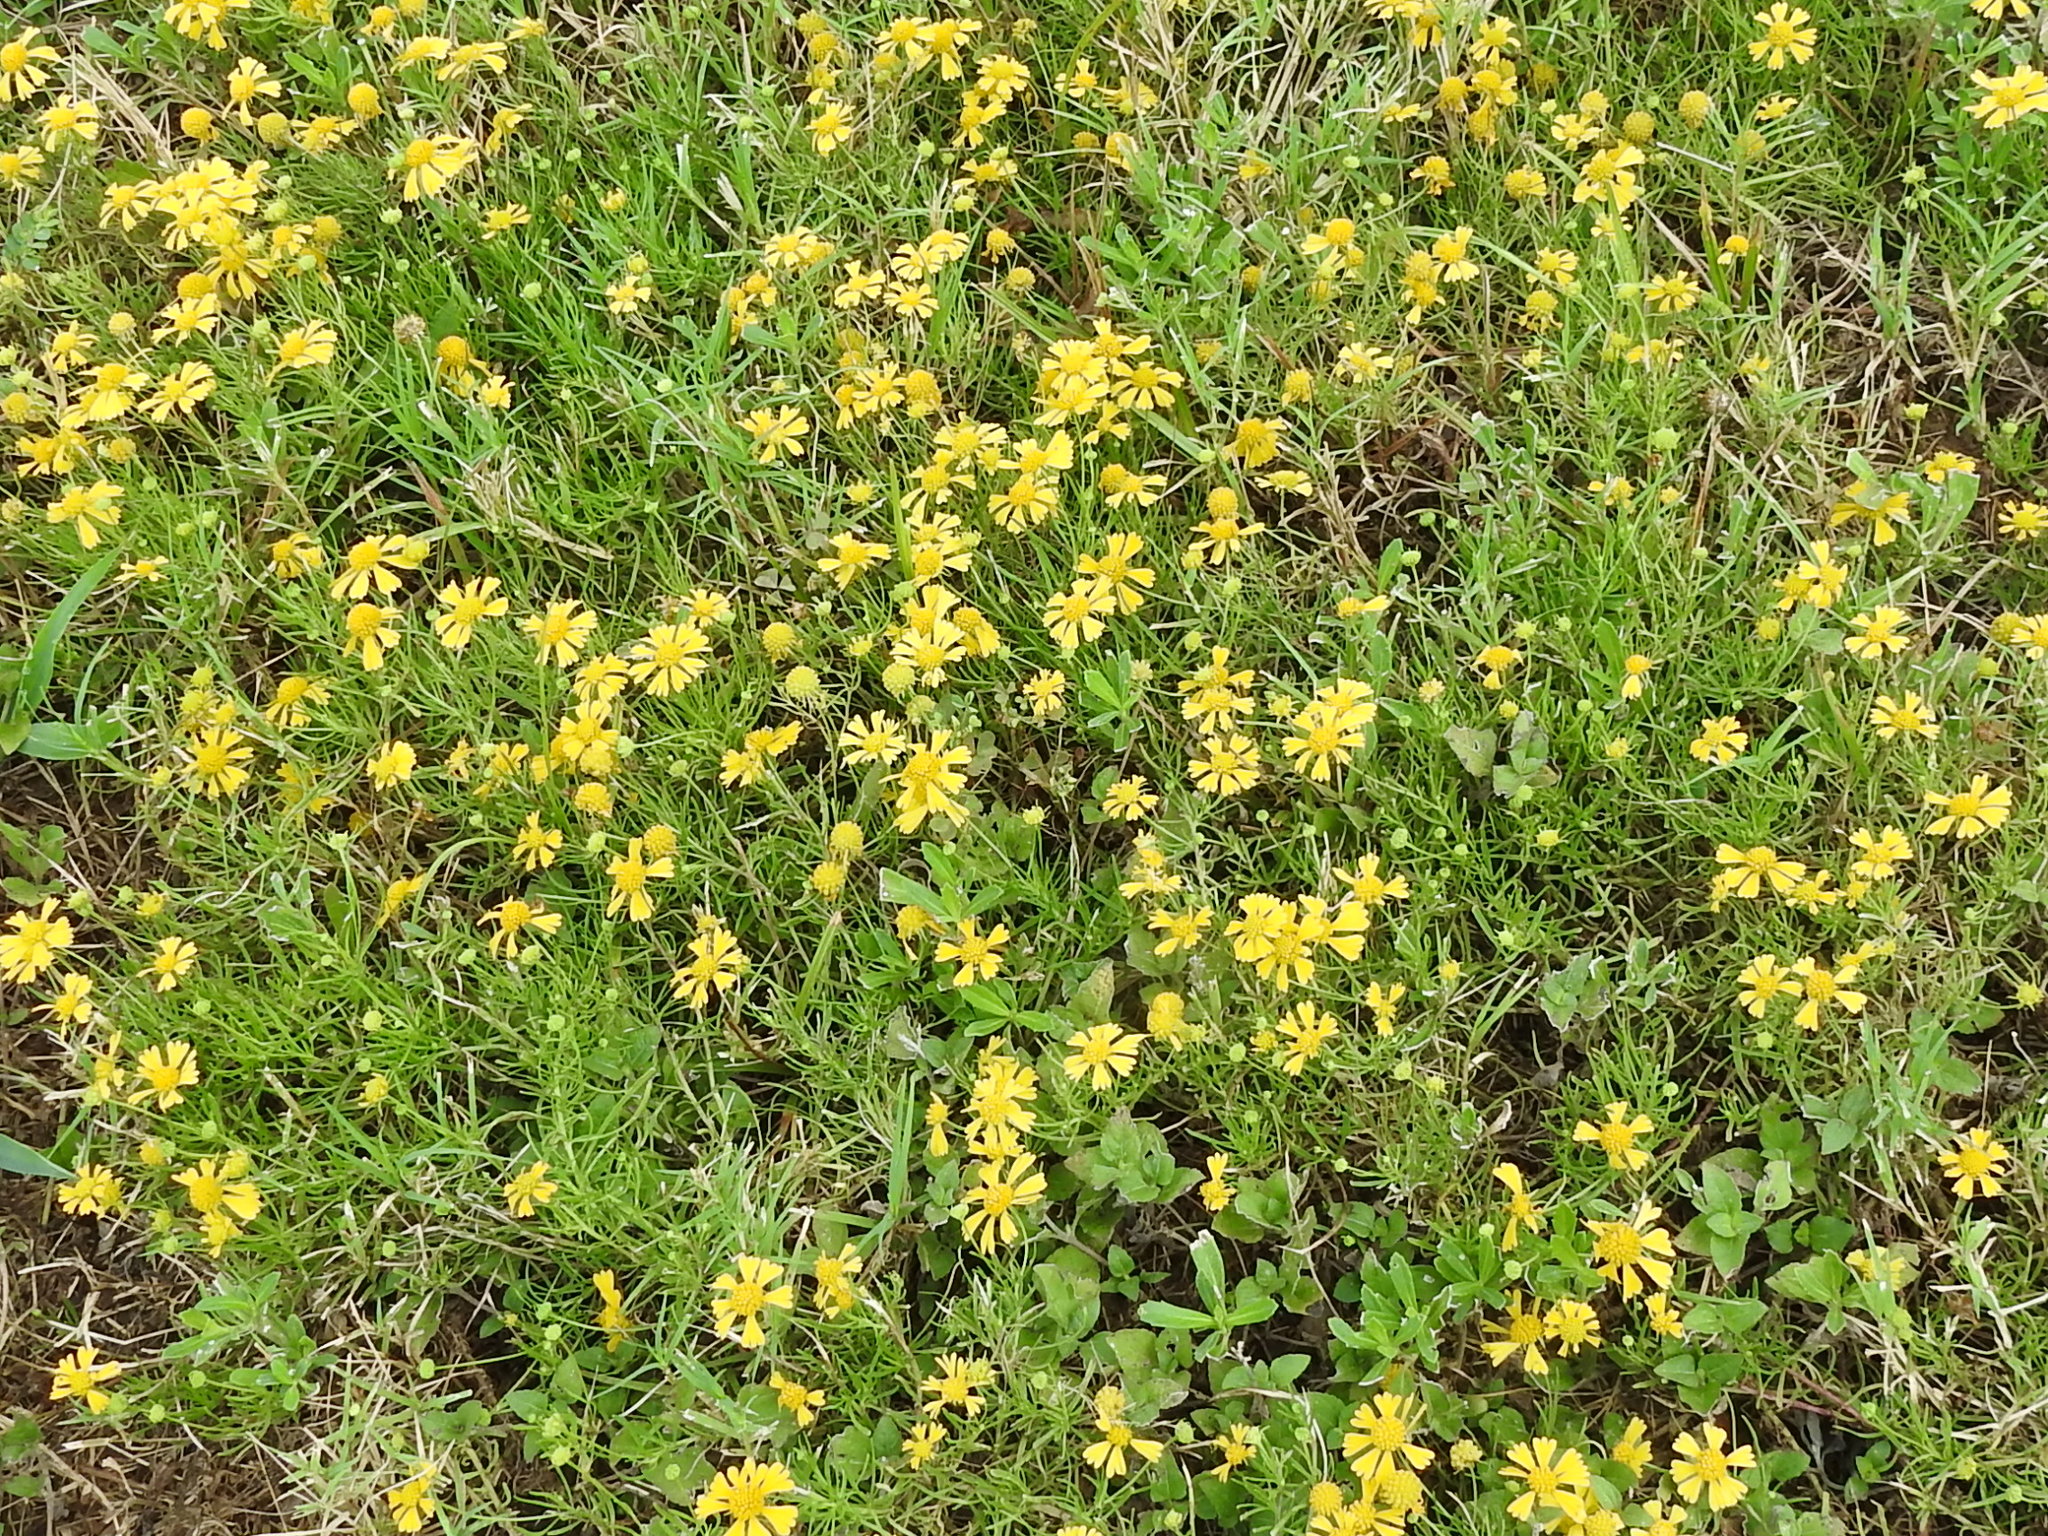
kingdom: Plantae
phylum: Tracheophyta
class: Magnoliopsida
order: Asterales
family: Asteraceae
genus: Helenium
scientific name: Helenium amarum
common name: Bitter sneezeweed
